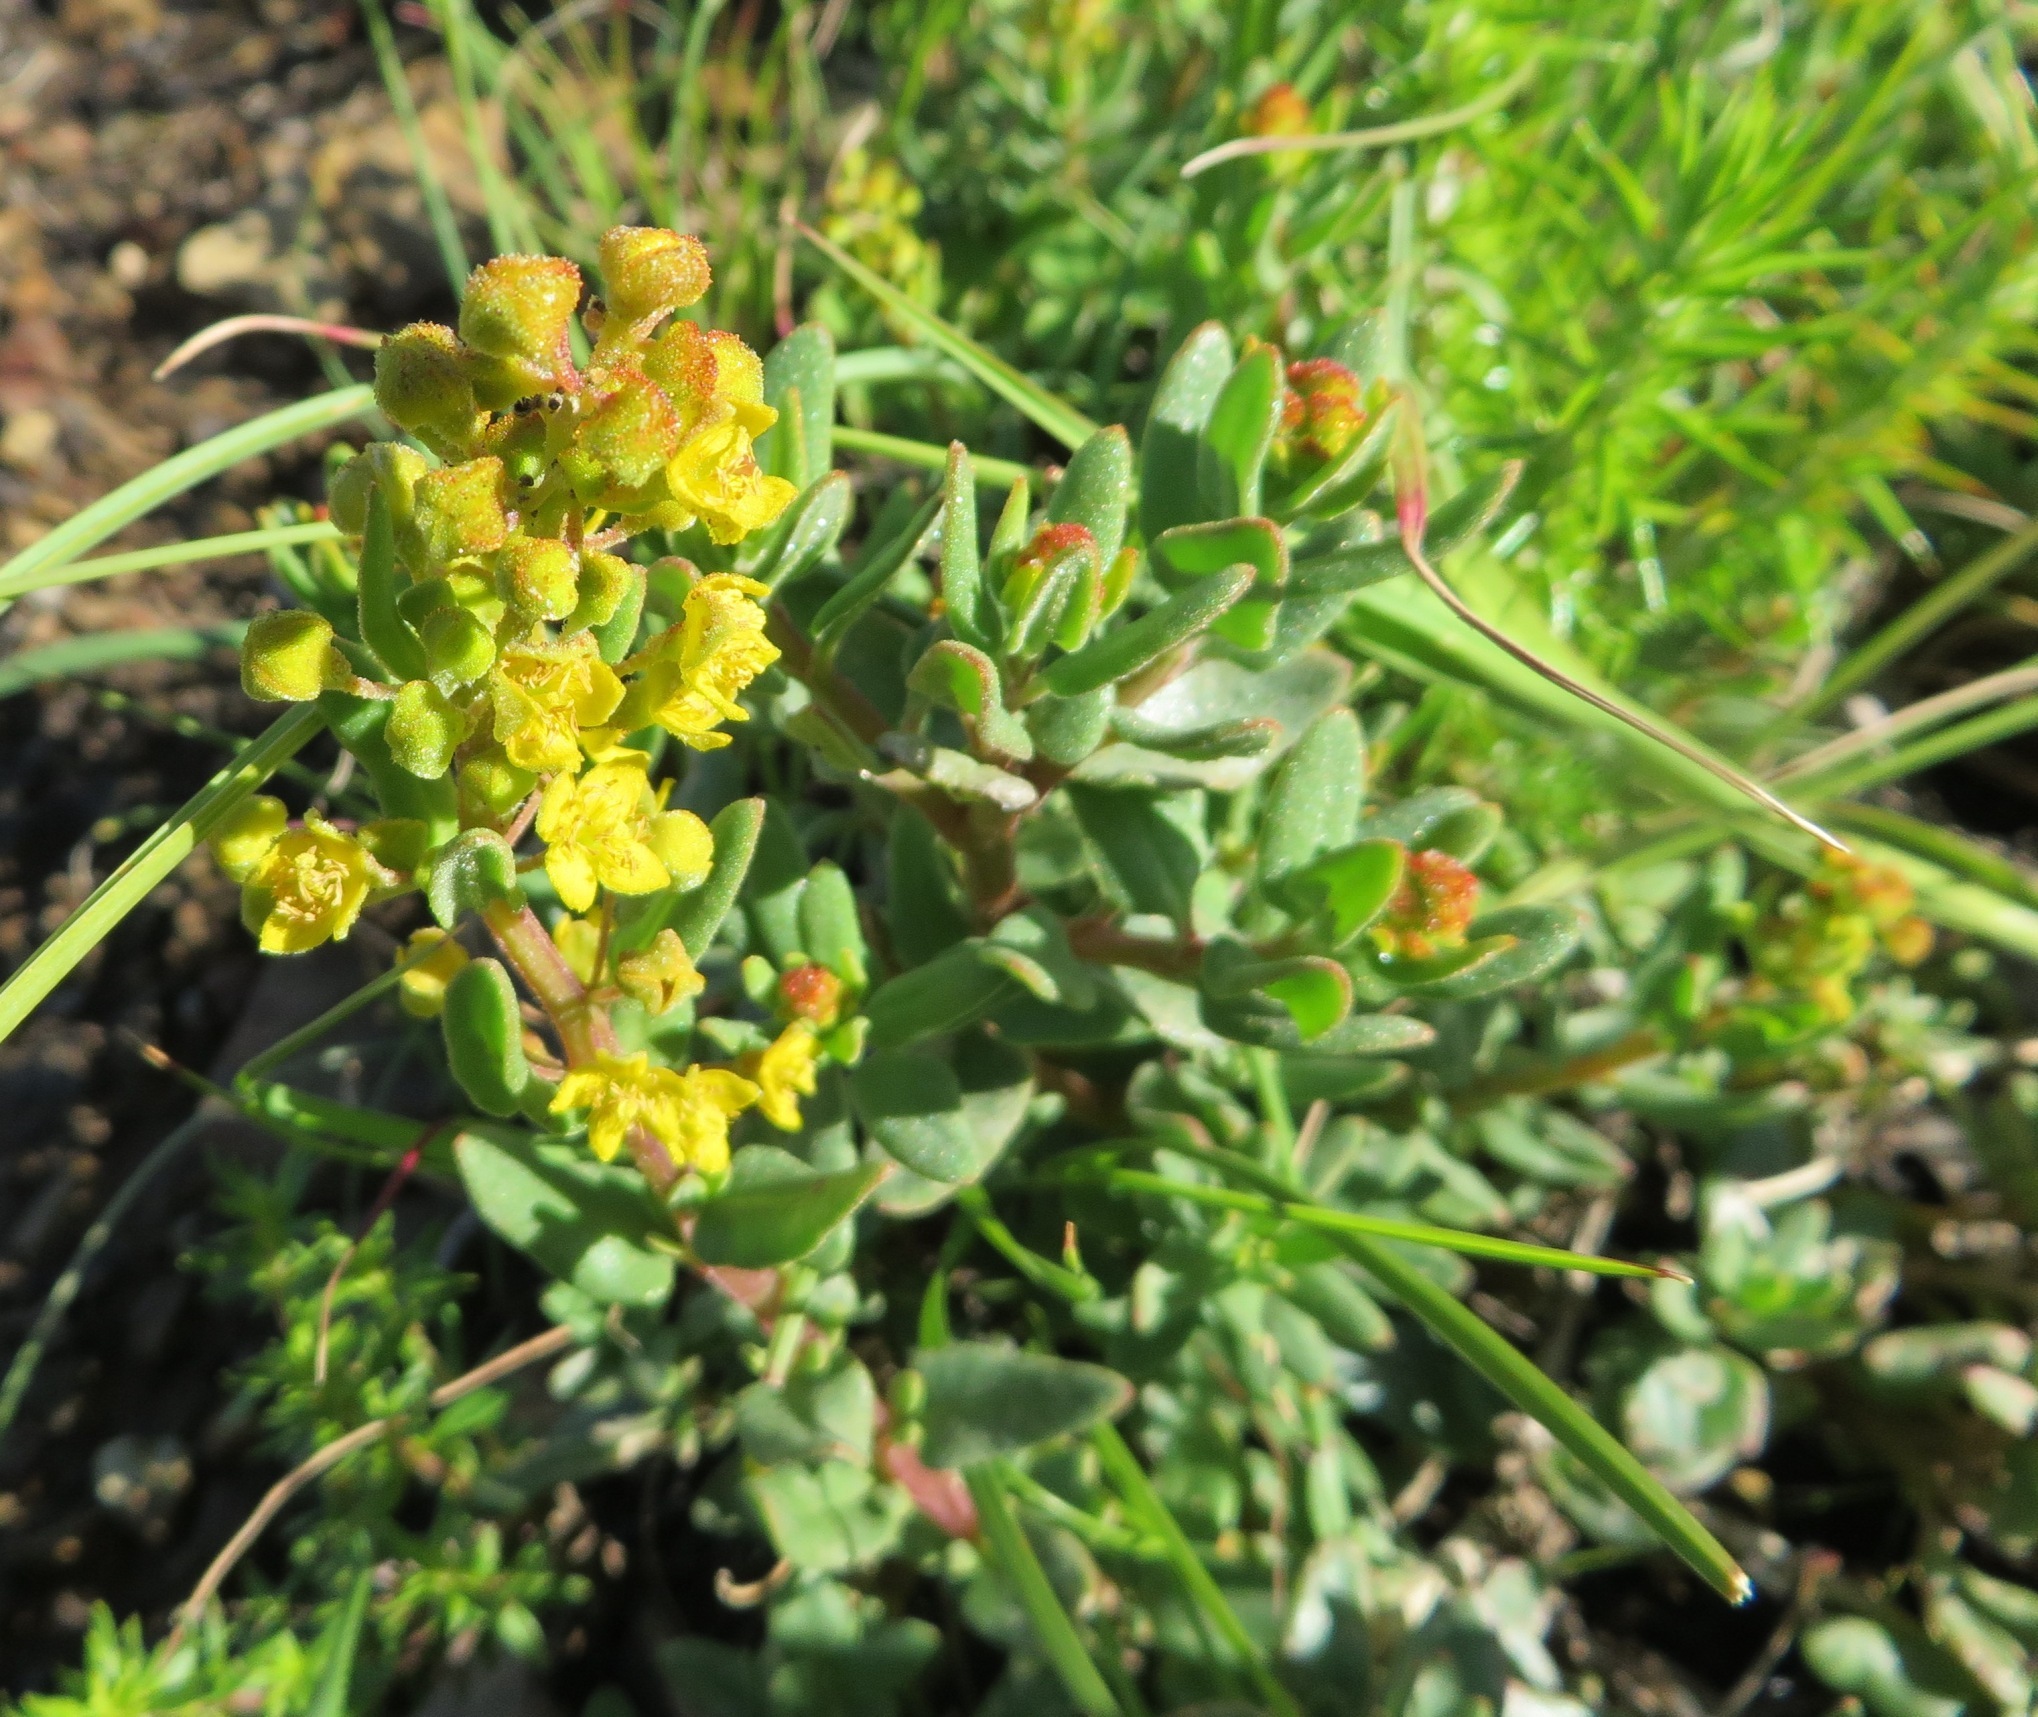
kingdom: Plantae
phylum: Tracheophyta
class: Magnoliopsida
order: Caryophyllales
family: Aizoaceae
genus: Tetragonia
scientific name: Tetragonia fruticosa
